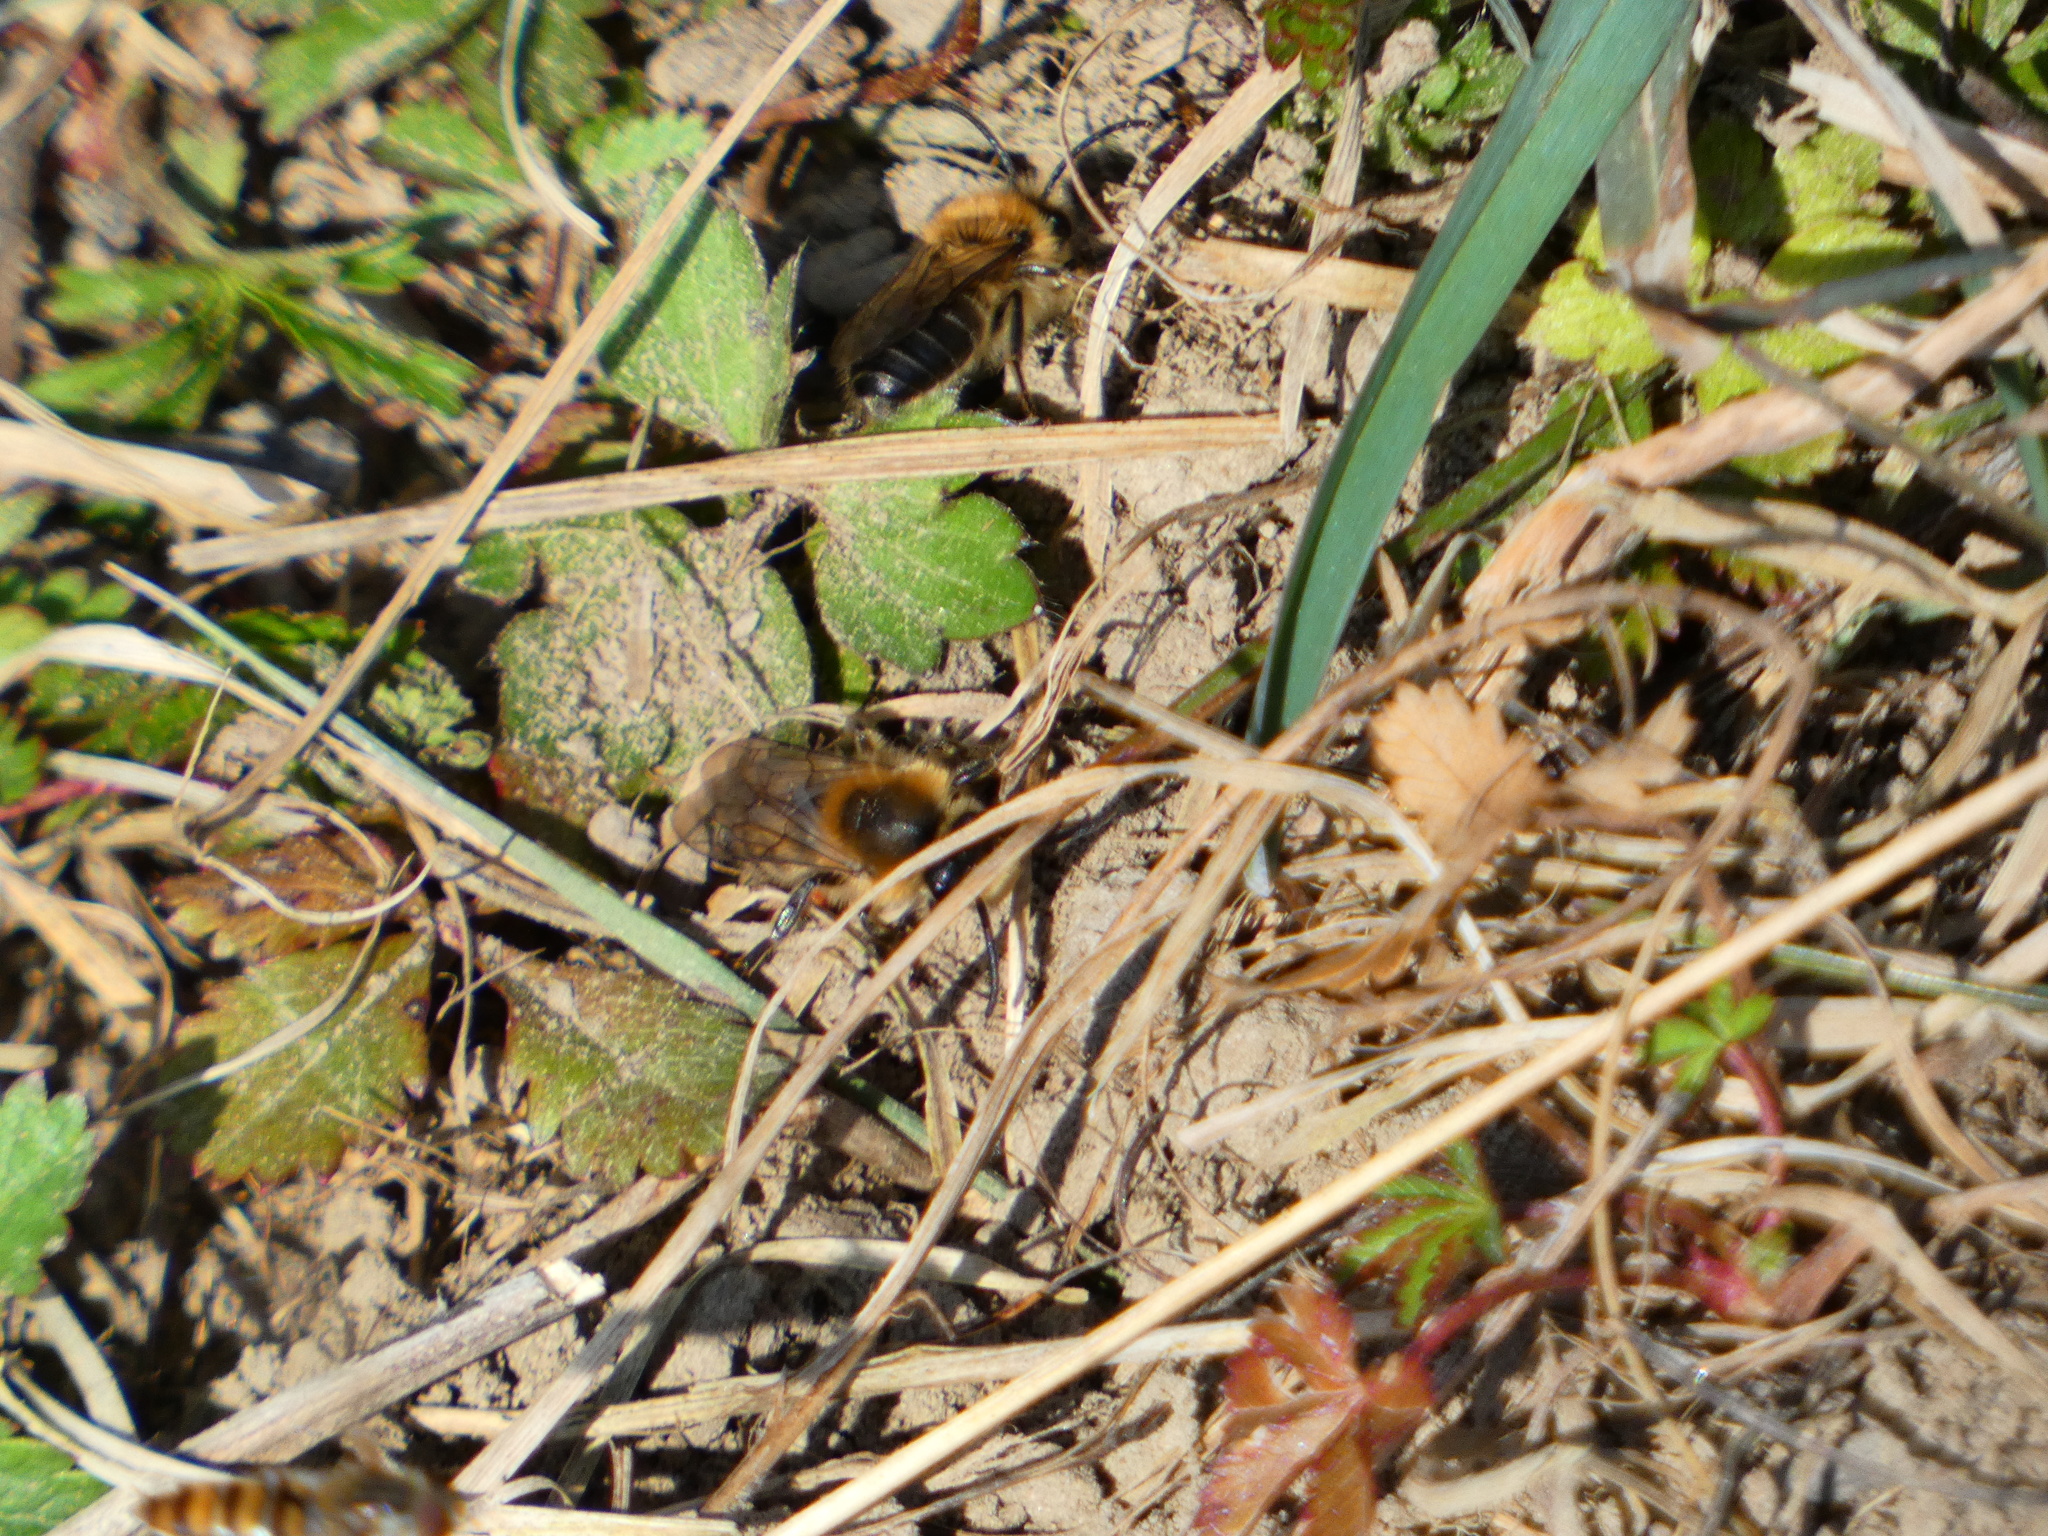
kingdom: Animalia
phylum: Arthropoda
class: Insecta
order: Hymenoptera
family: Colletidae
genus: Colletes
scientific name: Colletes cunicularius
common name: Early colletes
